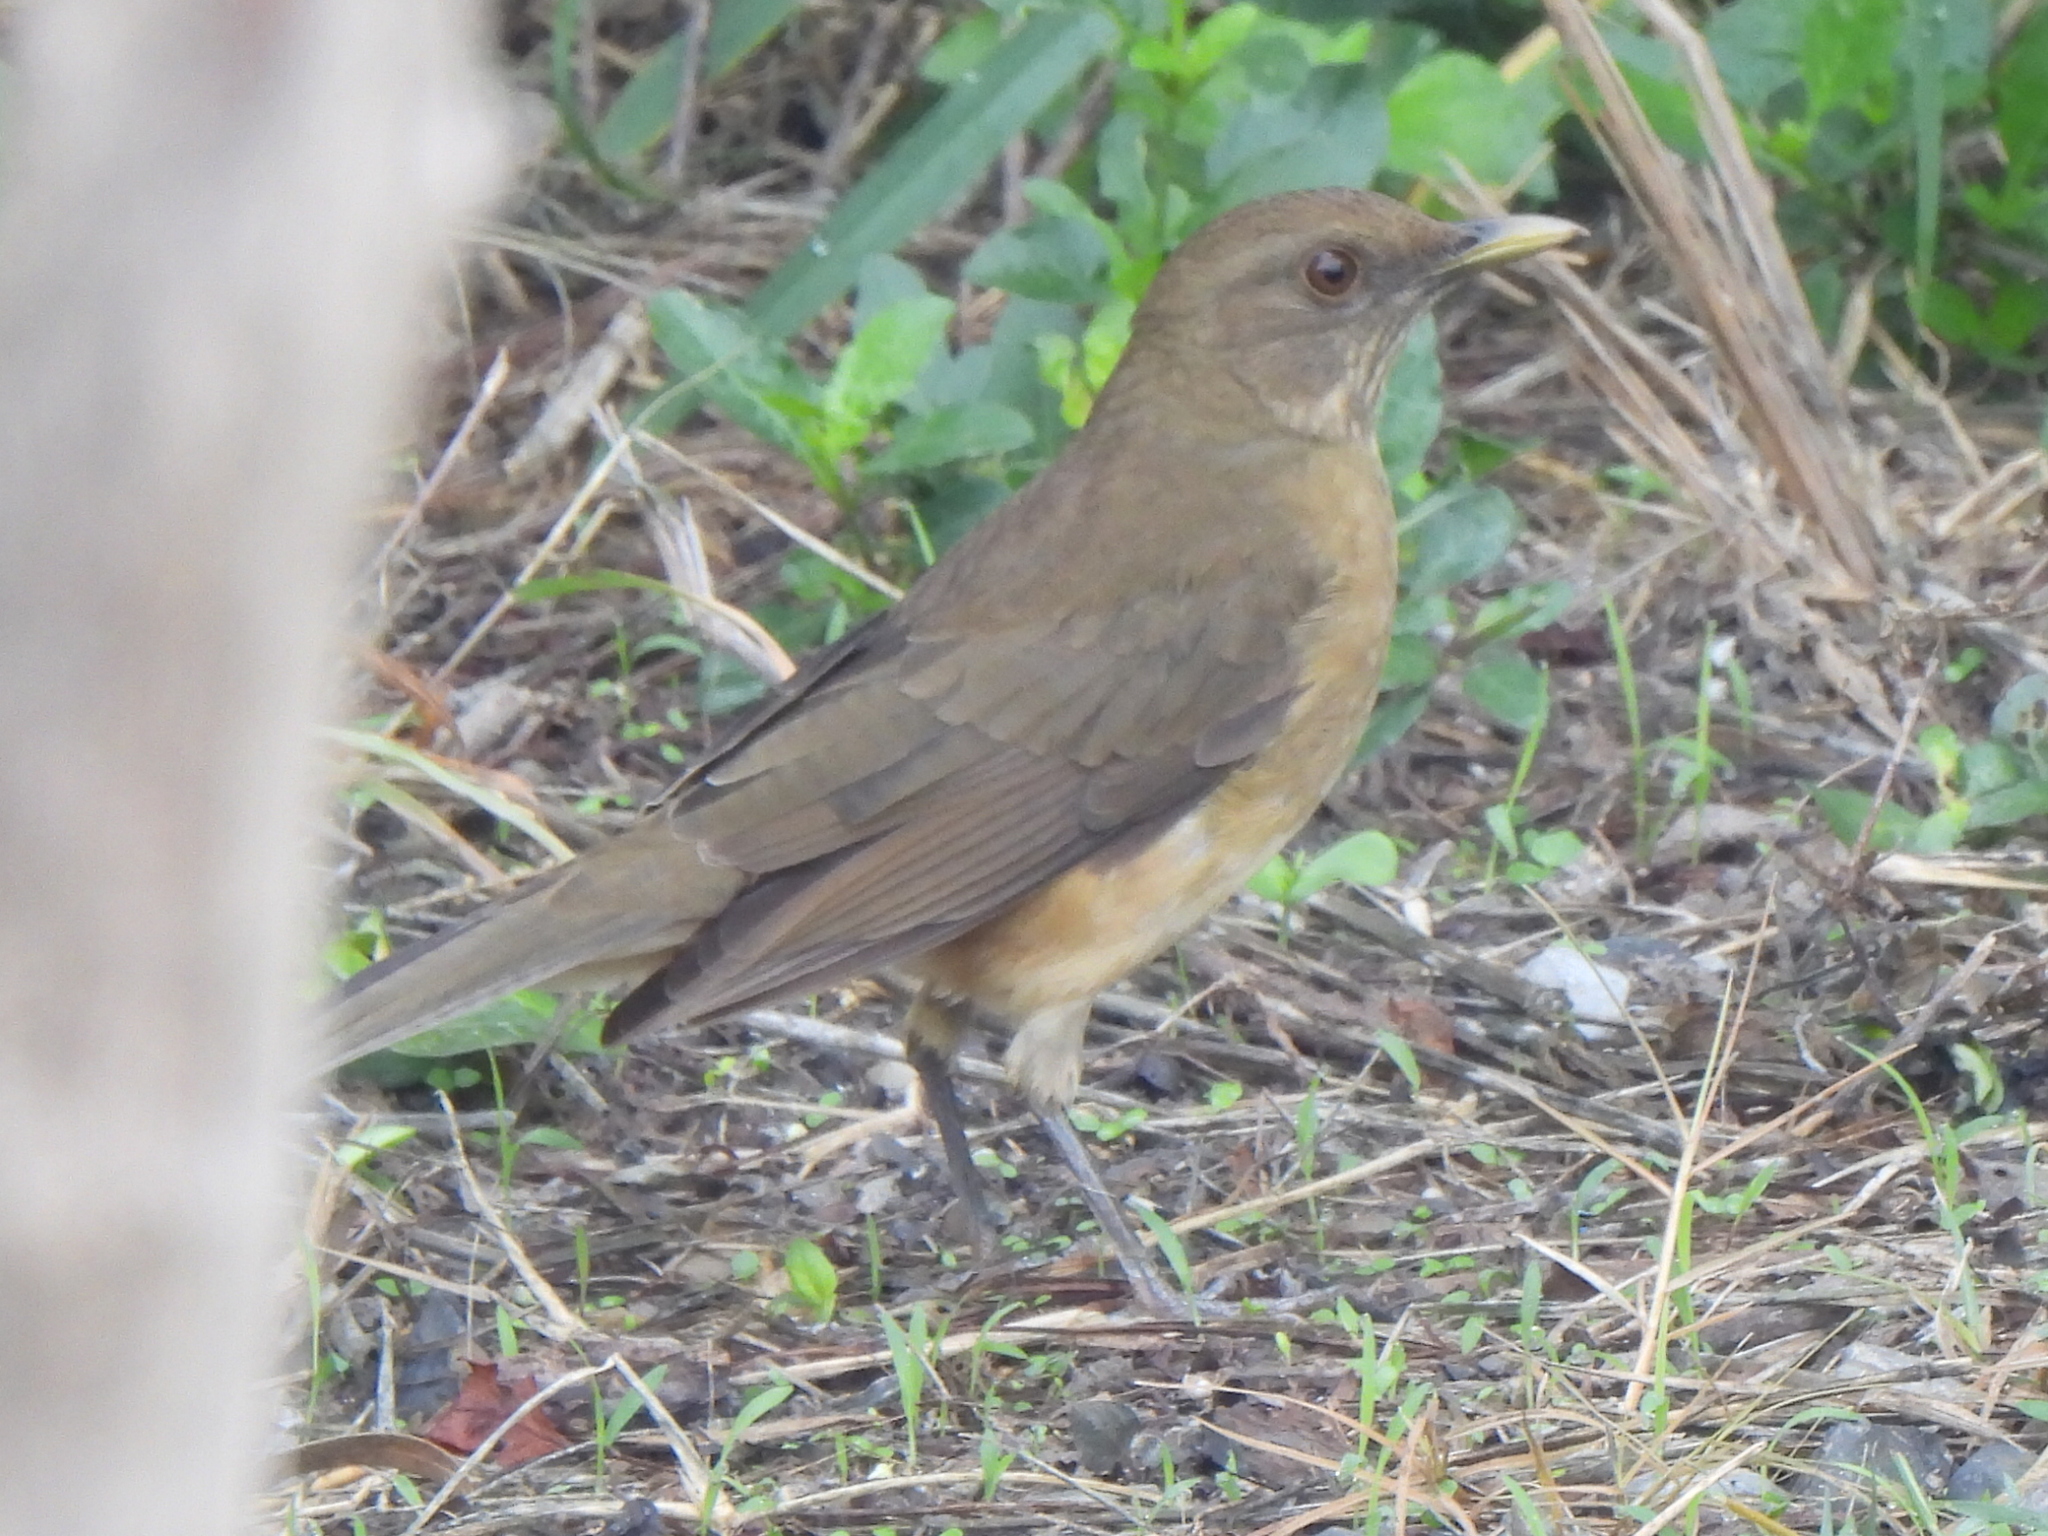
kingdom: Animalia
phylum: Chordata
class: Aves
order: Passeriformes
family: Turdidae
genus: Turdus
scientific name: Turdus grayi
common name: Clay-colored thrush
